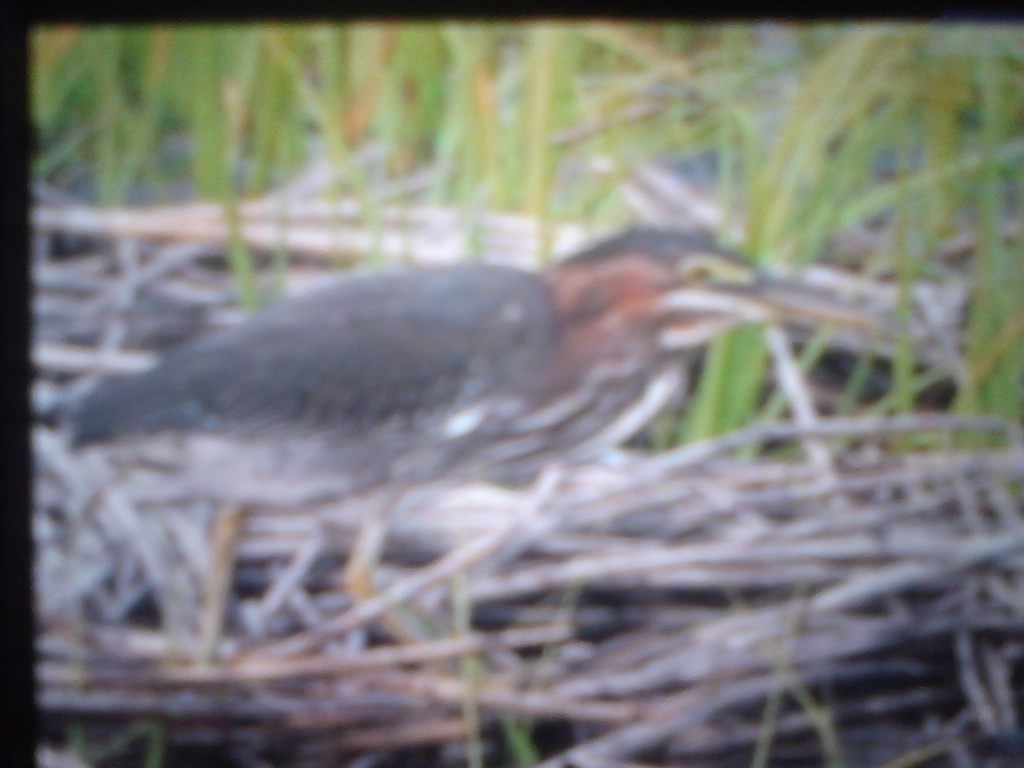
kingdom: Animalia
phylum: Chordata
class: Aves
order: Pelecaniformes
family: Ardeidae
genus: Butorides
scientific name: Butorides virescens
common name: Green heron
